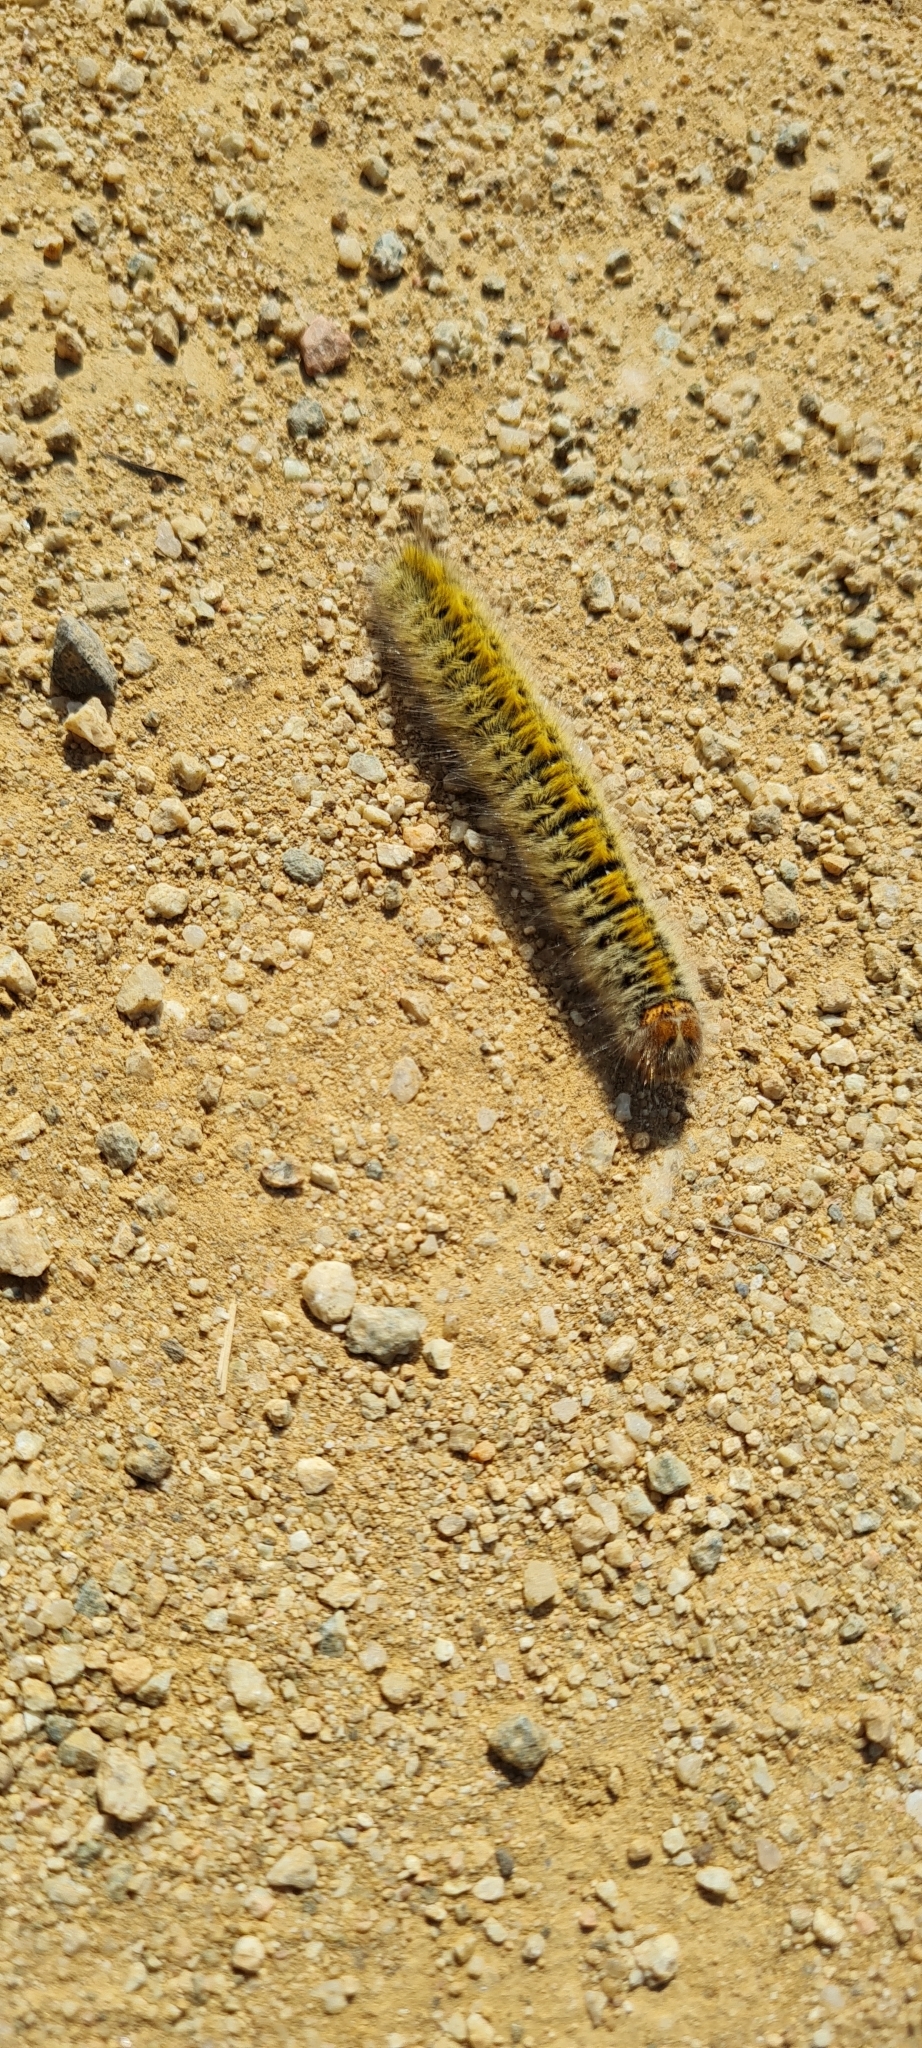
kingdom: Animalia
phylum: Arthropoda
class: Insecta
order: Lepidoptera
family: Lasiocampidae
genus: Lasiocampa
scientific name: Lasiocampa trifolii
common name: Grass eggar
